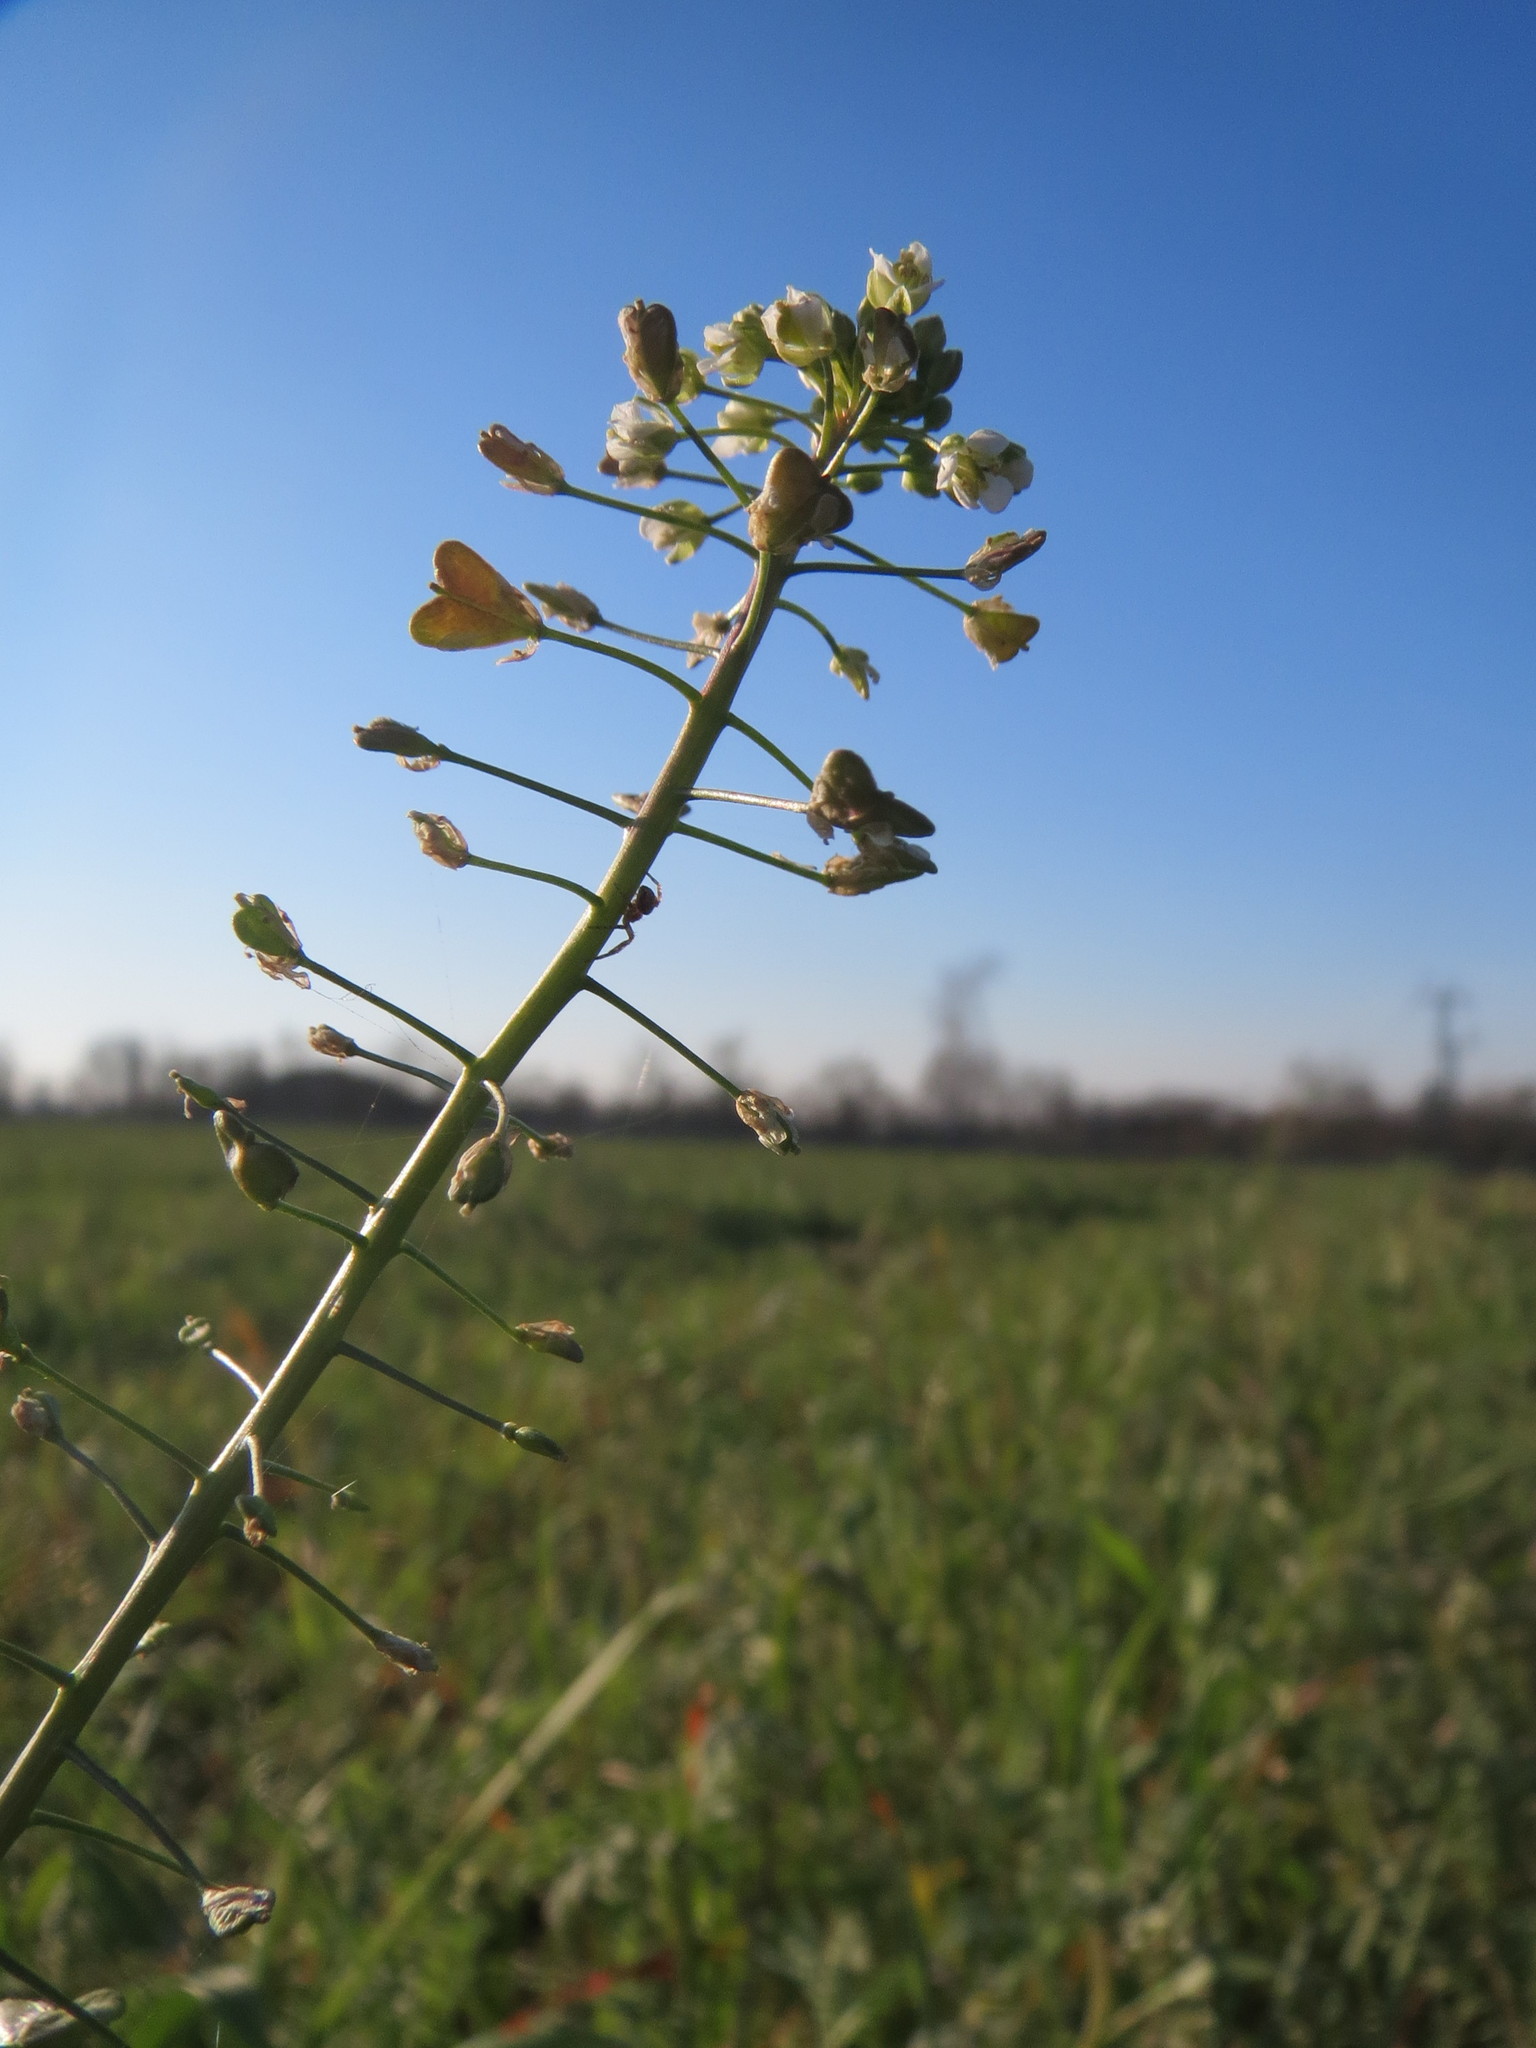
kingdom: Plantae
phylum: Tracheophyta
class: Magnoliopsida
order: Brassicales
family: Brassicaceae
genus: Capsella
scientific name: Capsella bursa-pastoris
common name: Shepherd's purse
